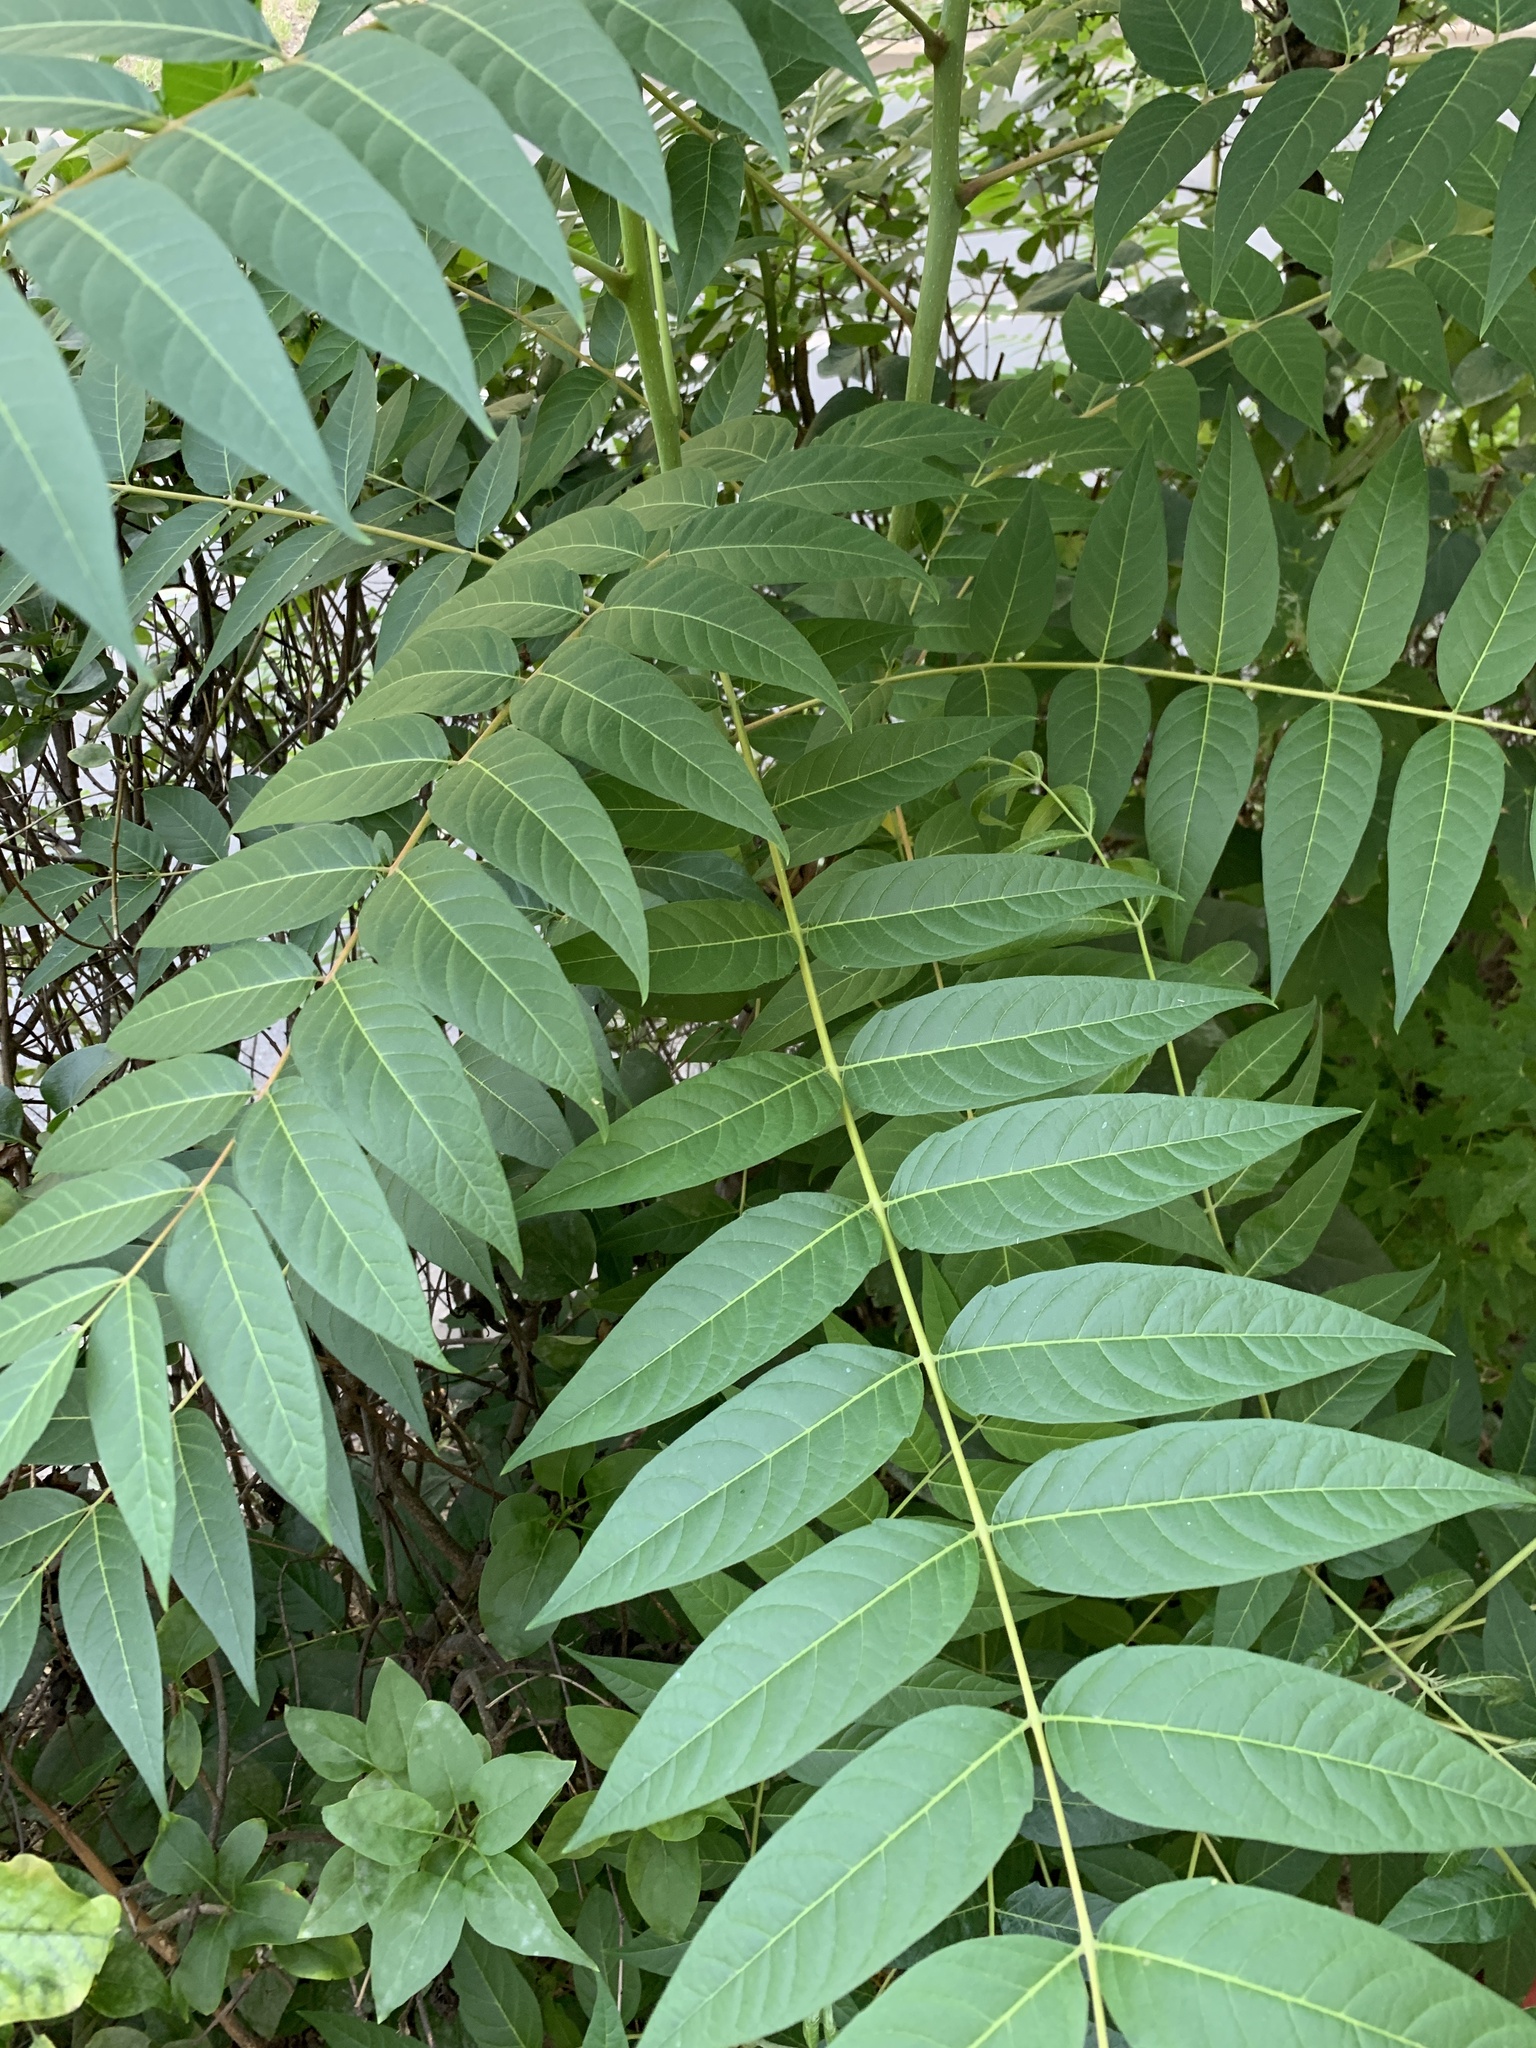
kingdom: Plantae
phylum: Tracheophyta
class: Magnoliopsida
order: Sapindales
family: Simaroubaceae
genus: Ailanthus
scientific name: Ailanthus altissima
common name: Tree-of-heaven
